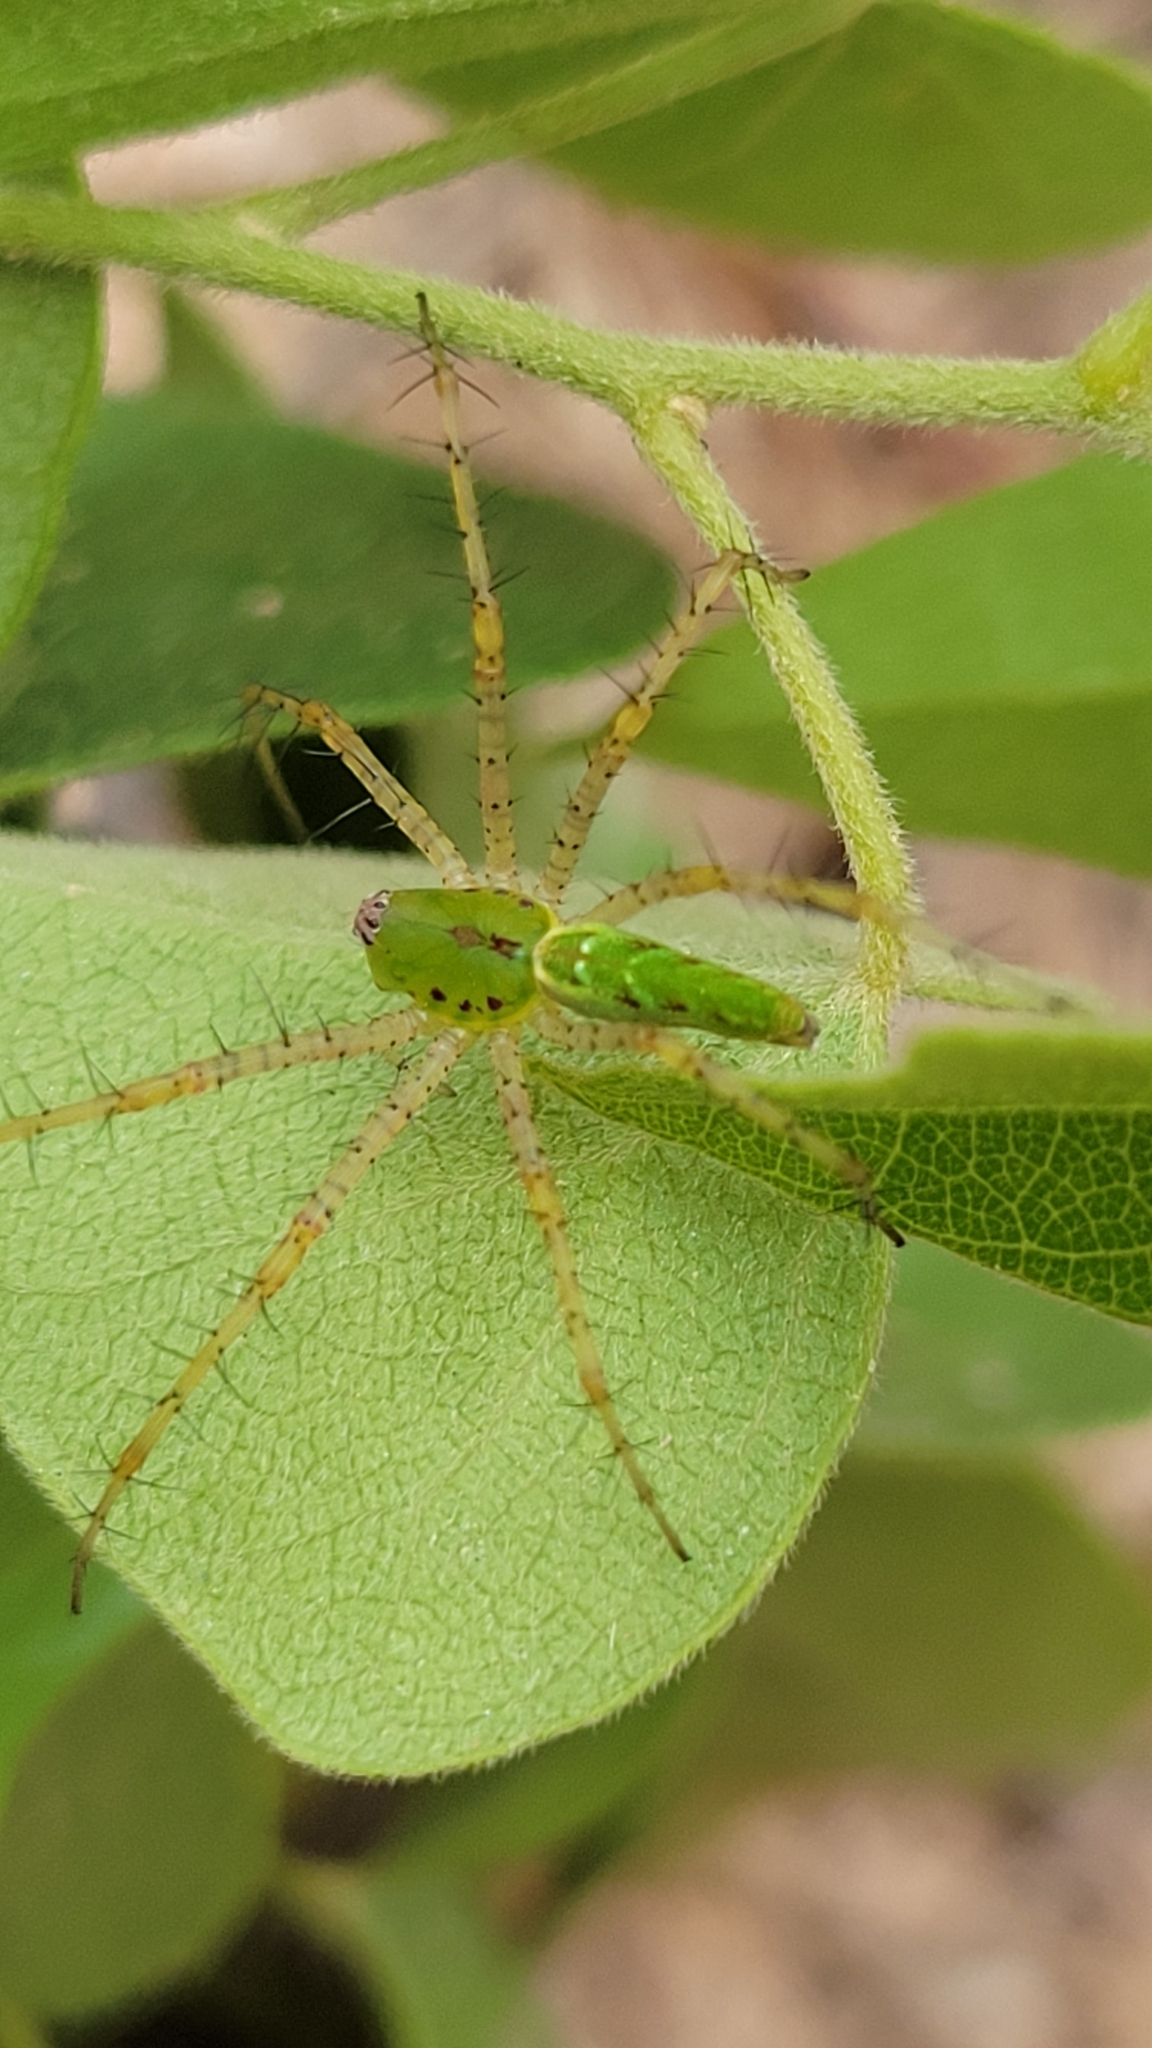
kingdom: Animalia
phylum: Arthropoda
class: Arachnida
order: Araneae
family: Oxyopidae
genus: Peucetia
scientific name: Peucetia viridans
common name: Lynx spiders
